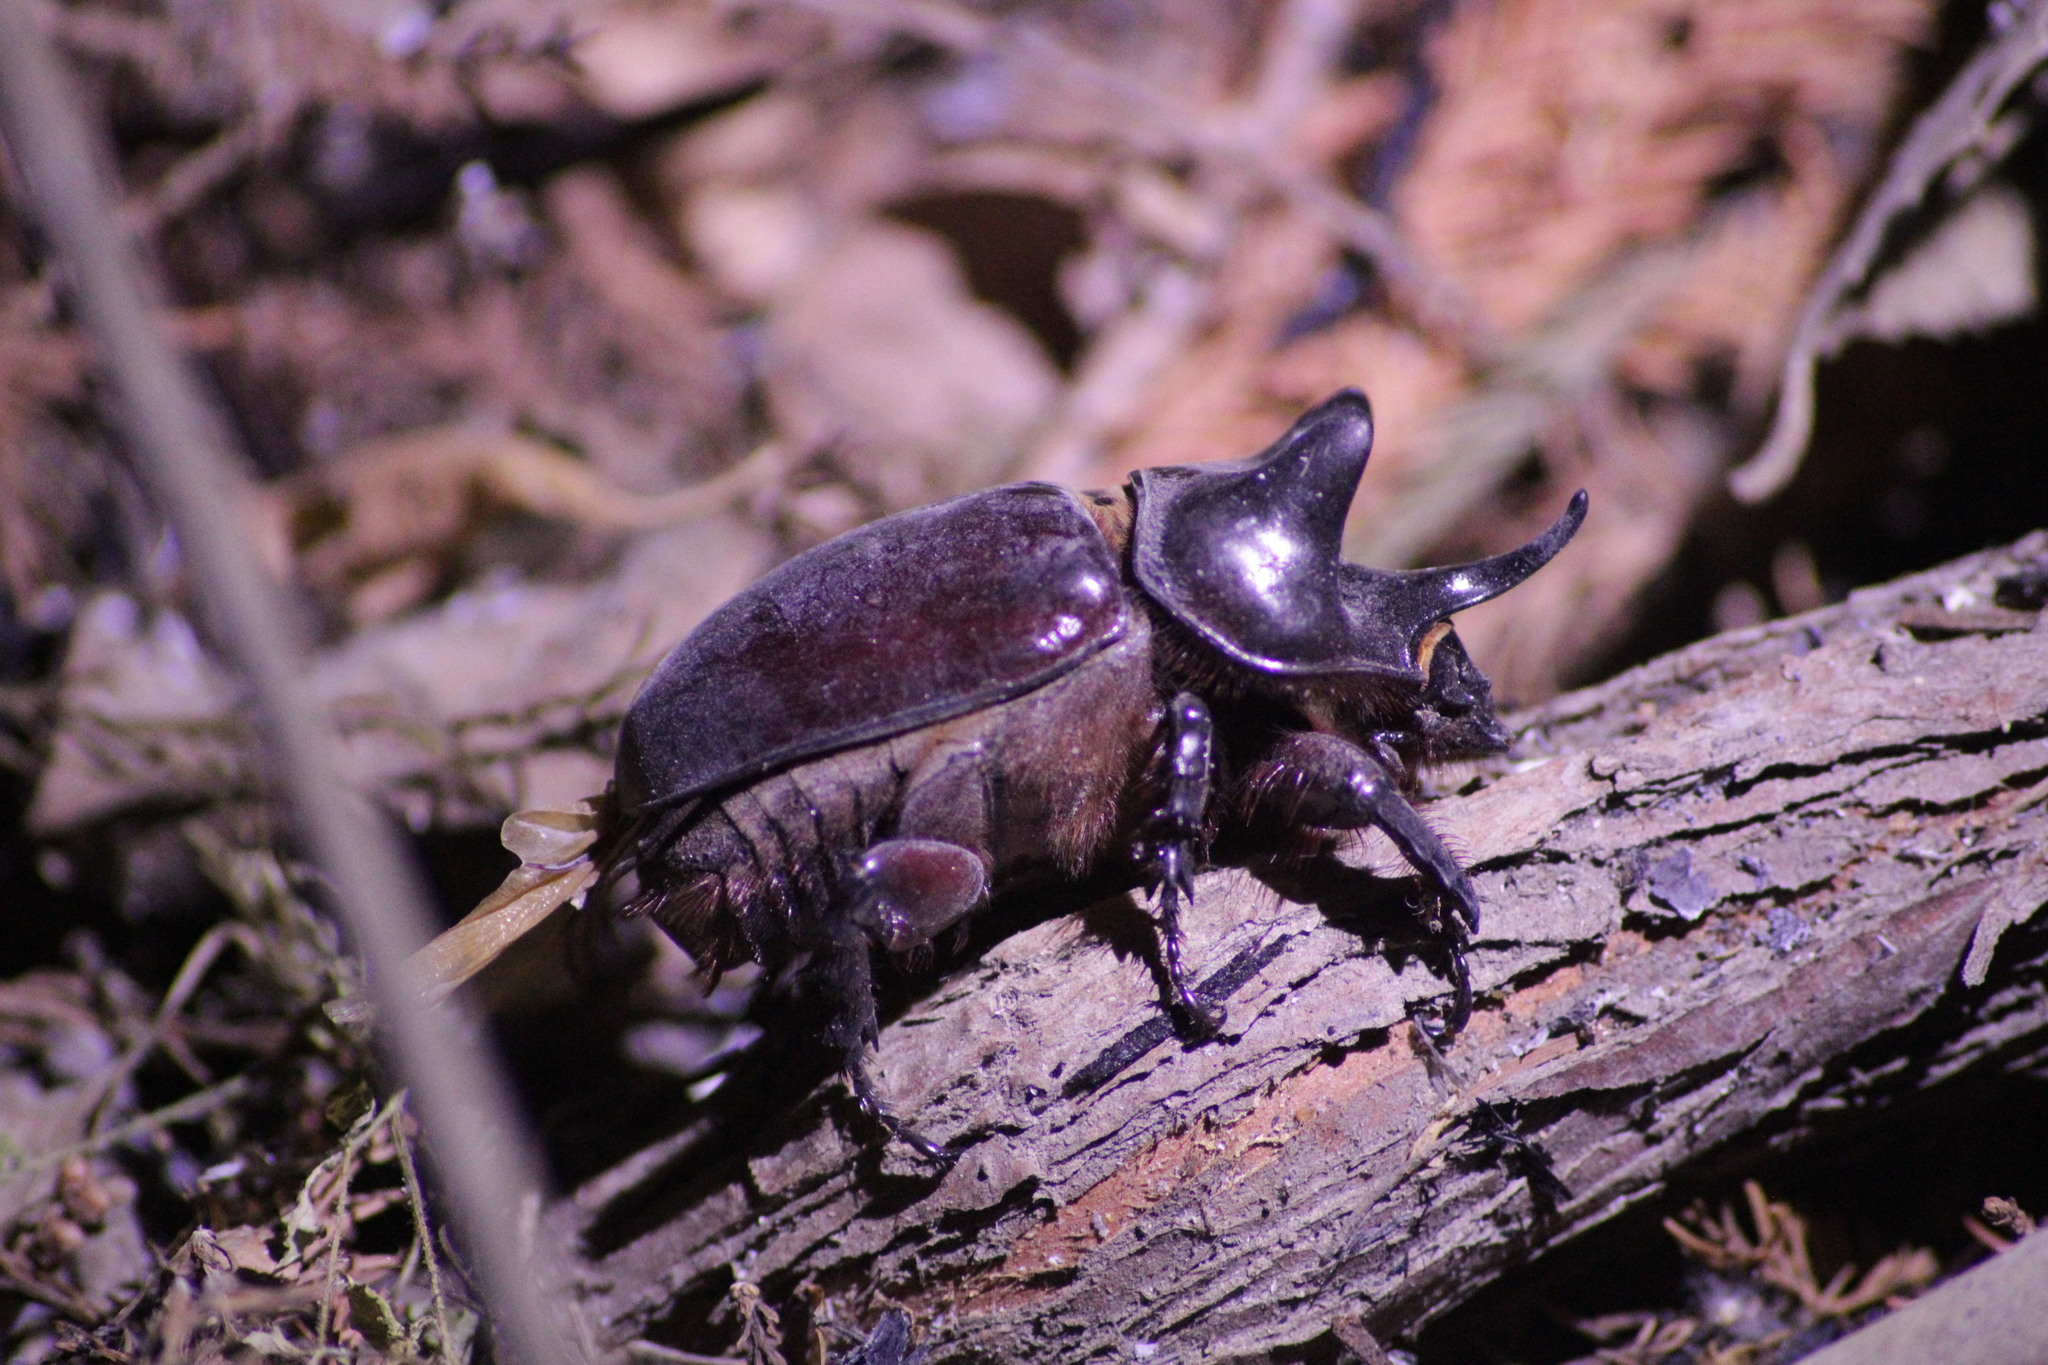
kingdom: Animalia
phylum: Arthropoda
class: Insecta
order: Coleoptera
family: Scarabaeidae
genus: Strategus
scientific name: Strategus aloeus
